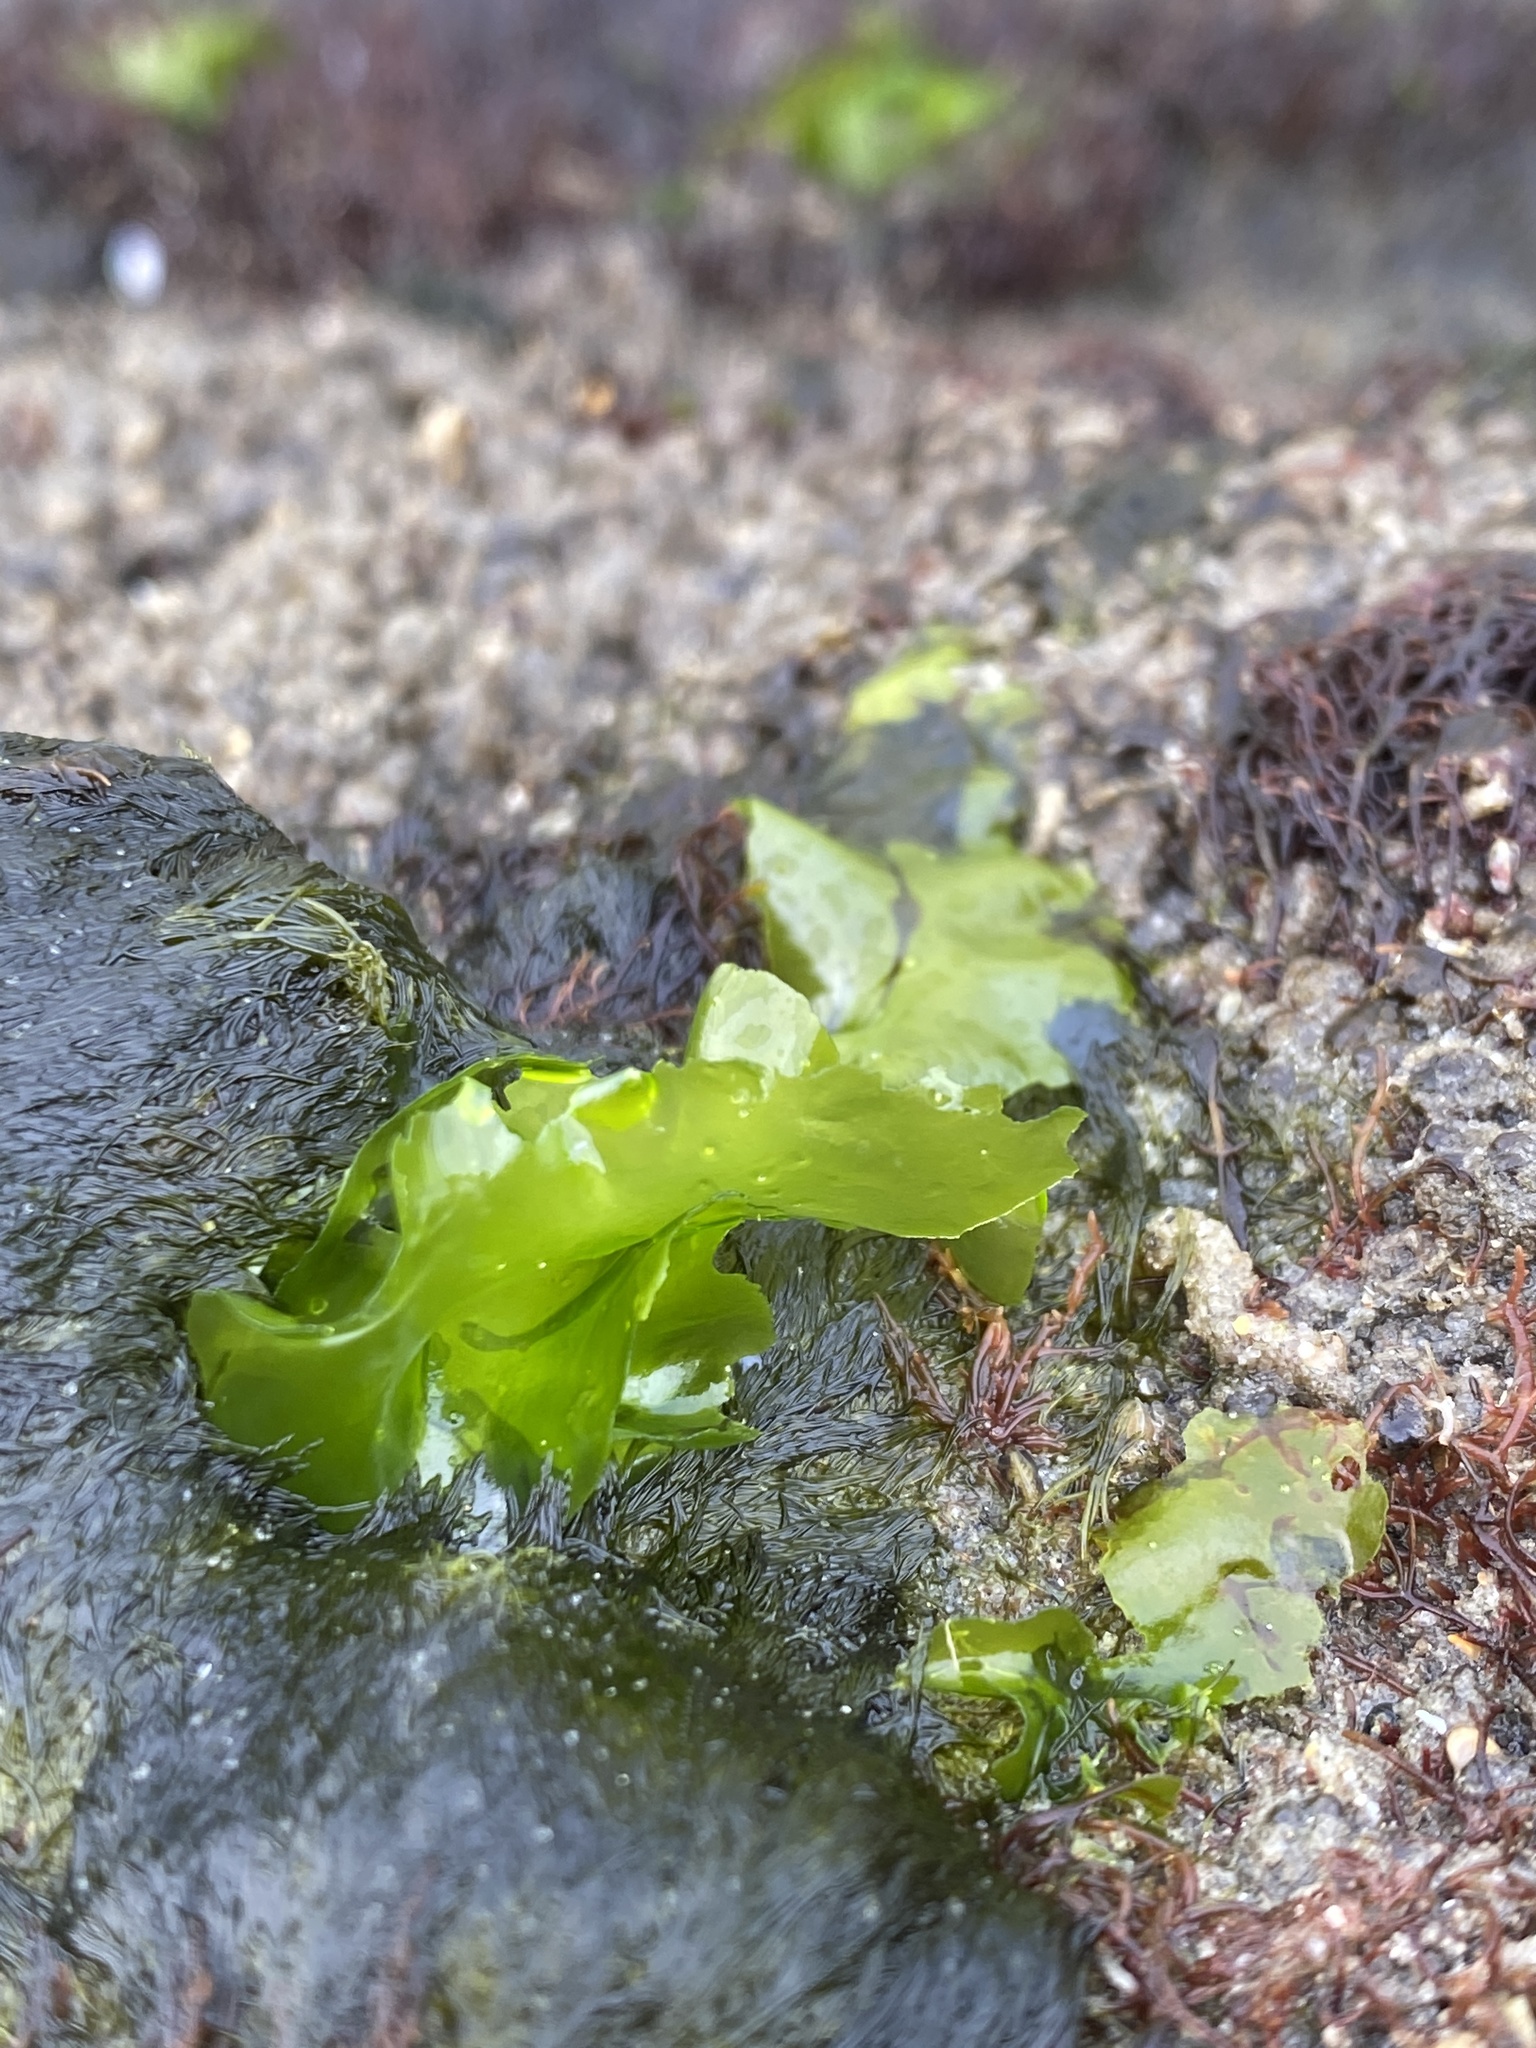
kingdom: Plantae
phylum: Chlorophyta
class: Ulvophyceae
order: Ulvales
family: Ulvaceae
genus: Ulva
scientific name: Ulva lactuca
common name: Sea lettuce
